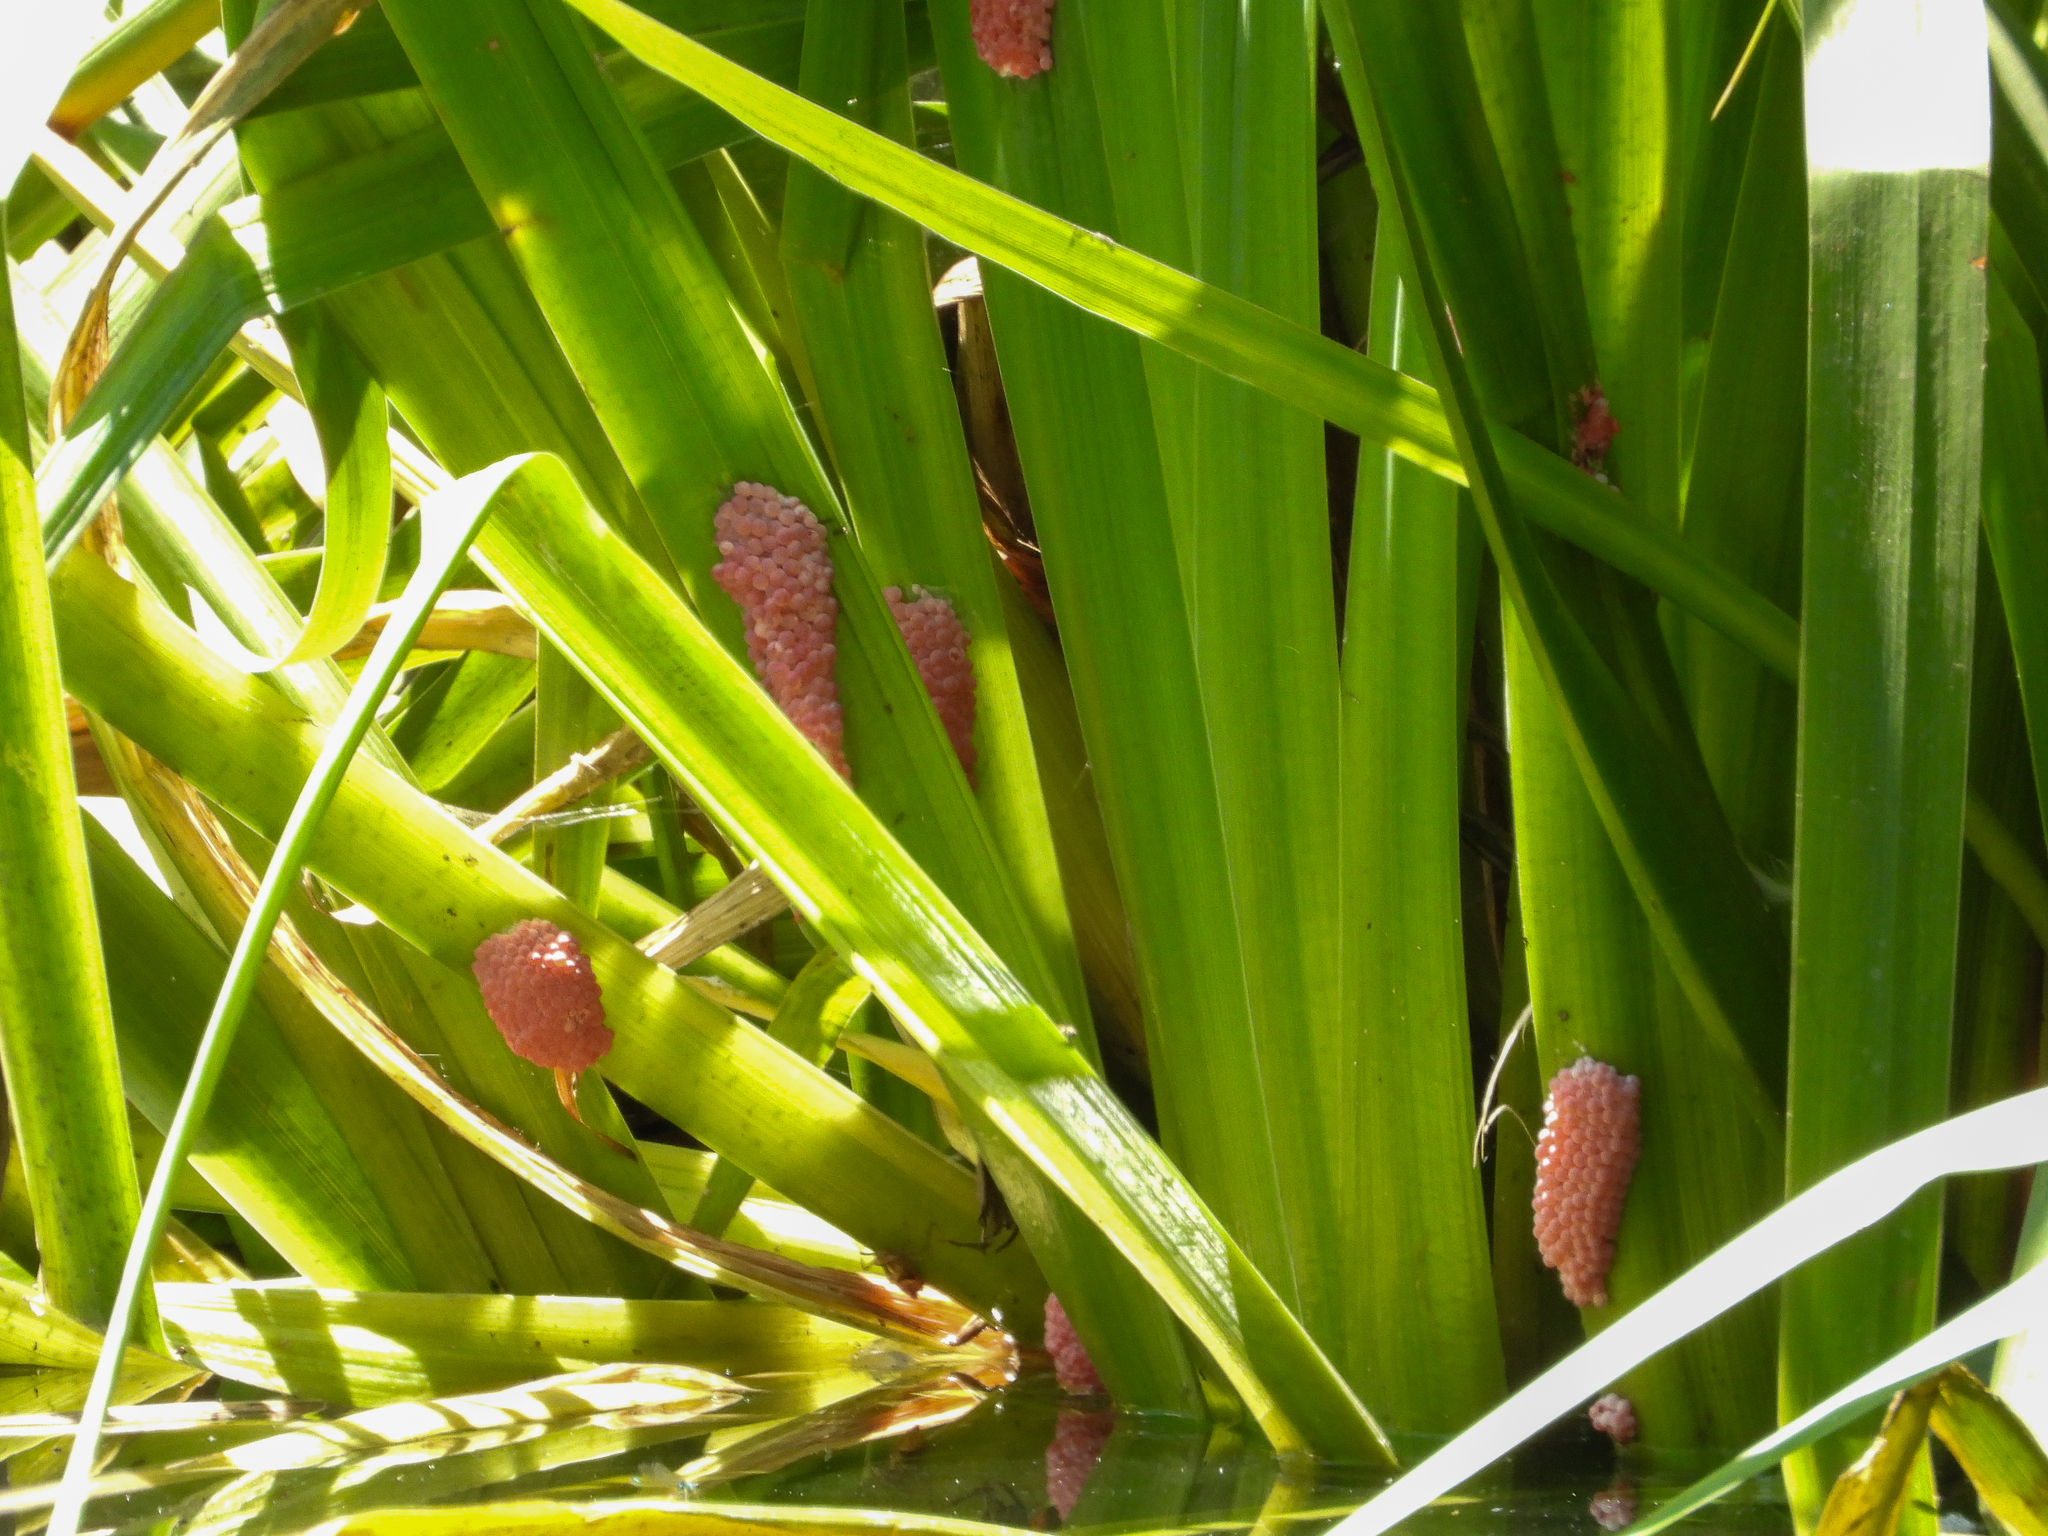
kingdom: Animalia
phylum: Mollusca
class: Gastropoda
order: Architaenioglossa
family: Ampullariidae
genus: Pomacea
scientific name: Pomacea canaliculata
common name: Channeled applesnail
